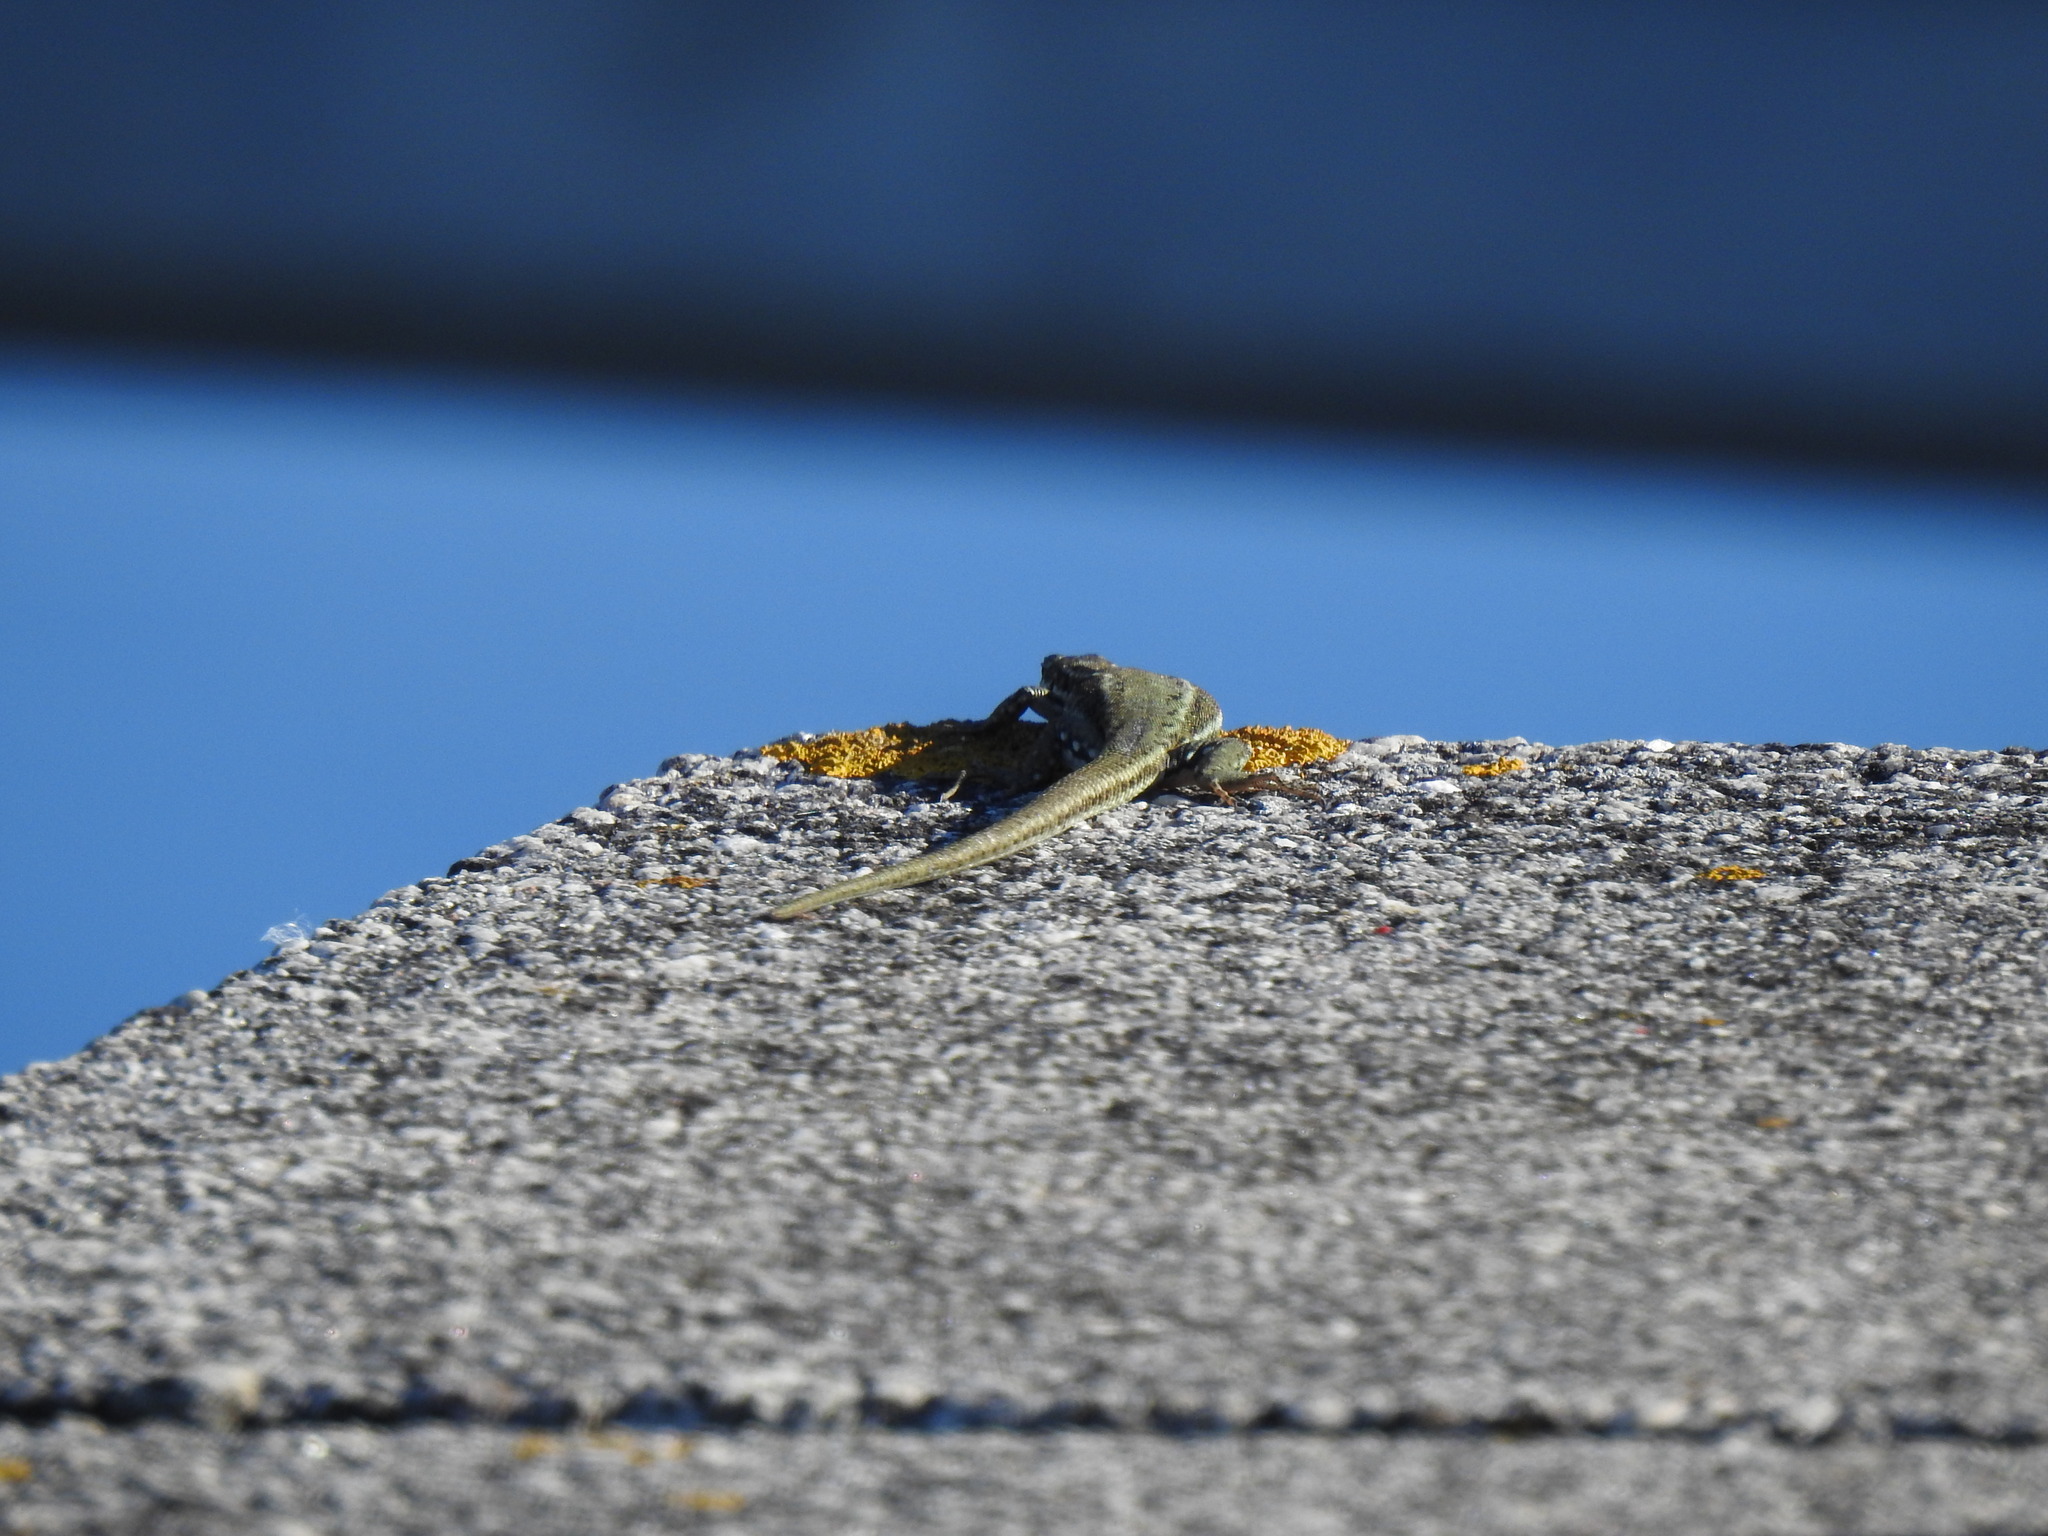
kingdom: Animalia
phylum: Chordata
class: Squamata
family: Lacertidae
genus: Podarcis
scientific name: Podarcis virescens
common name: Geniez’s wall lizard
